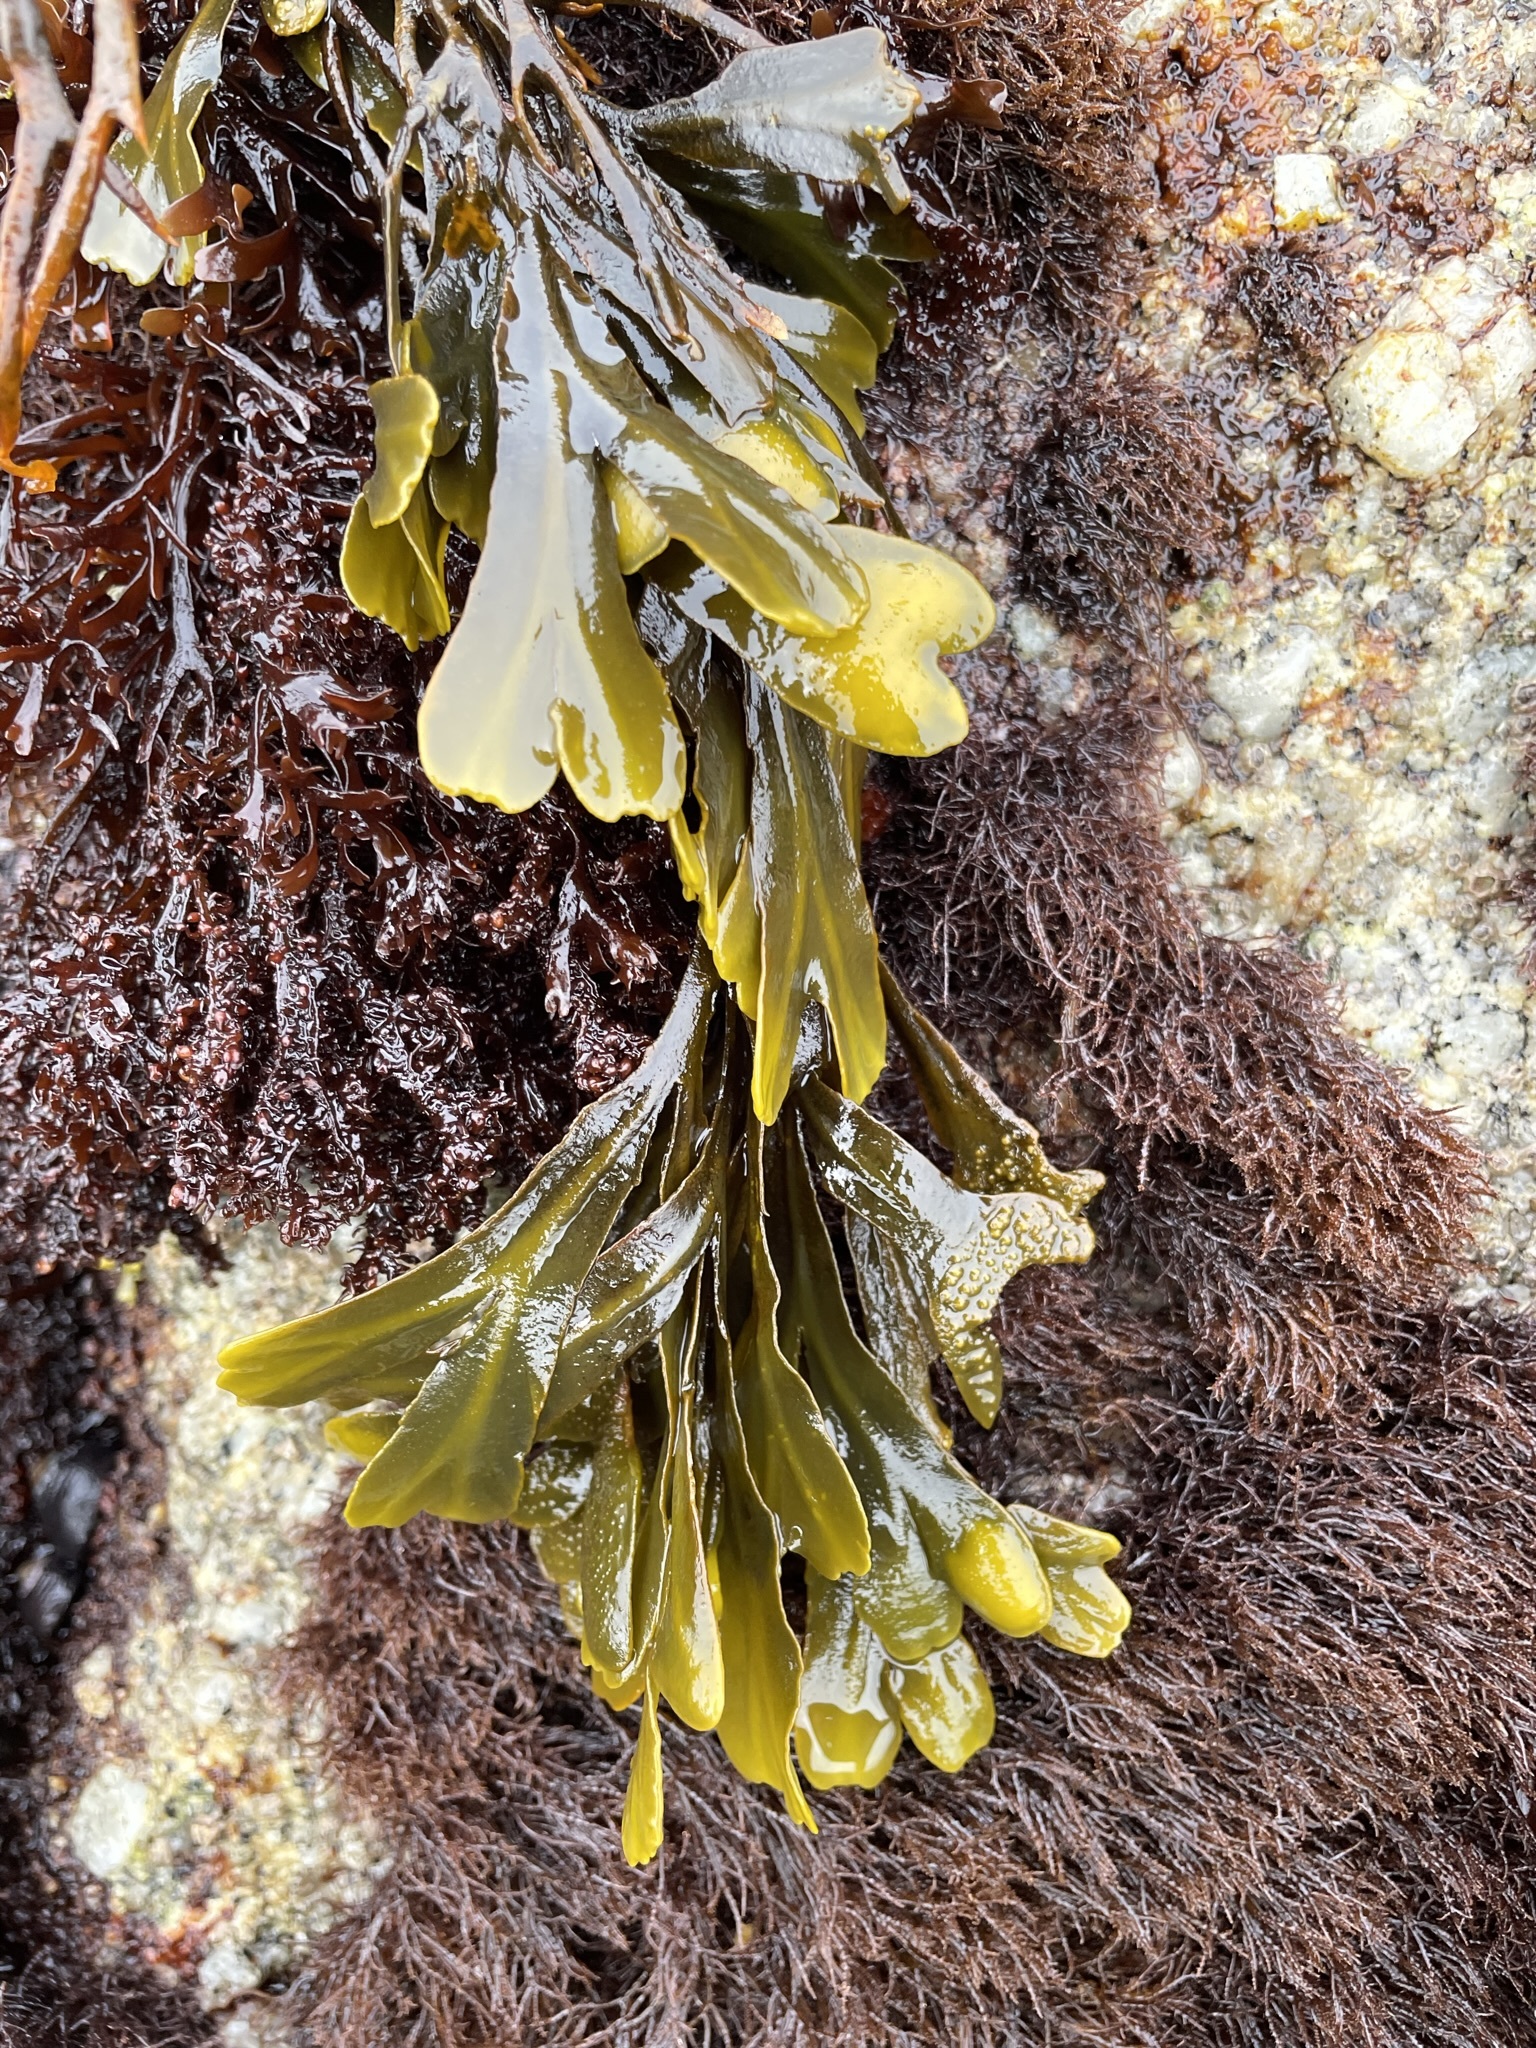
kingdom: Chromista
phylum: Ochrophyta
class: Phaeophyceae
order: Fucales
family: Fucaceae
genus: Fucus
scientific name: Fucus distichus
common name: Rockweed
